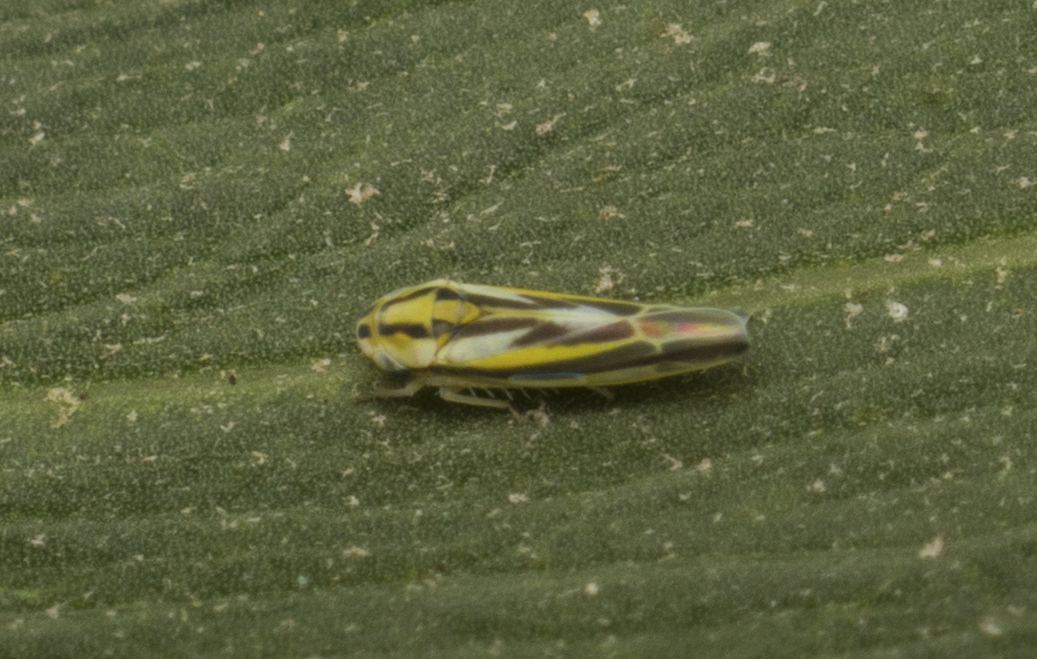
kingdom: Animalia
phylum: Arthropoda
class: Insecta
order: Hemiptera
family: Cicadellidae
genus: Zygina
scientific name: Zygina
